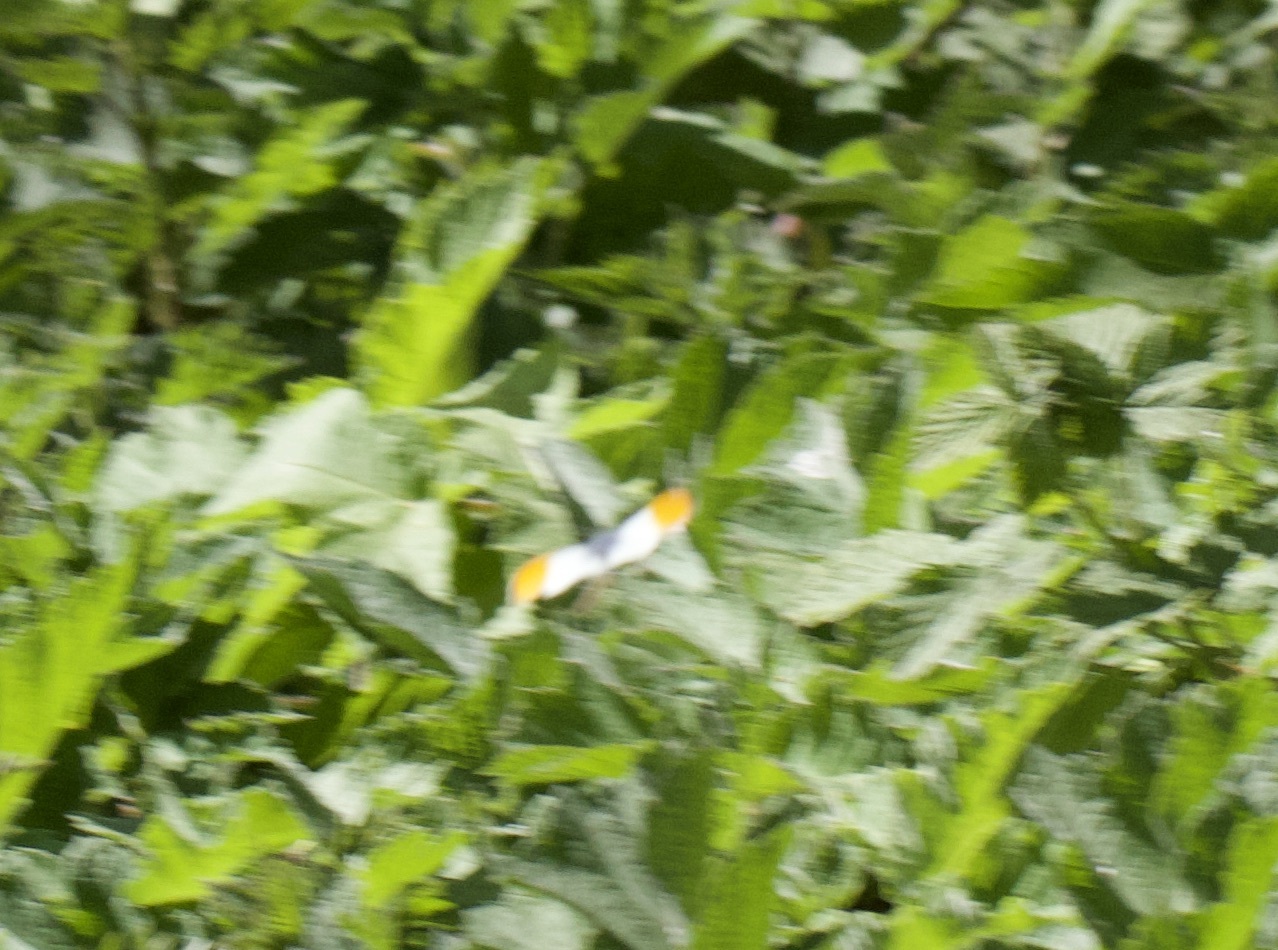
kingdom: Animalia
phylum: Arthropoda
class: Insecta
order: Lepidoptera
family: Pieridae
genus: Anthocharis
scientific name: Anthocharis cardamines
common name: Orange-tip
